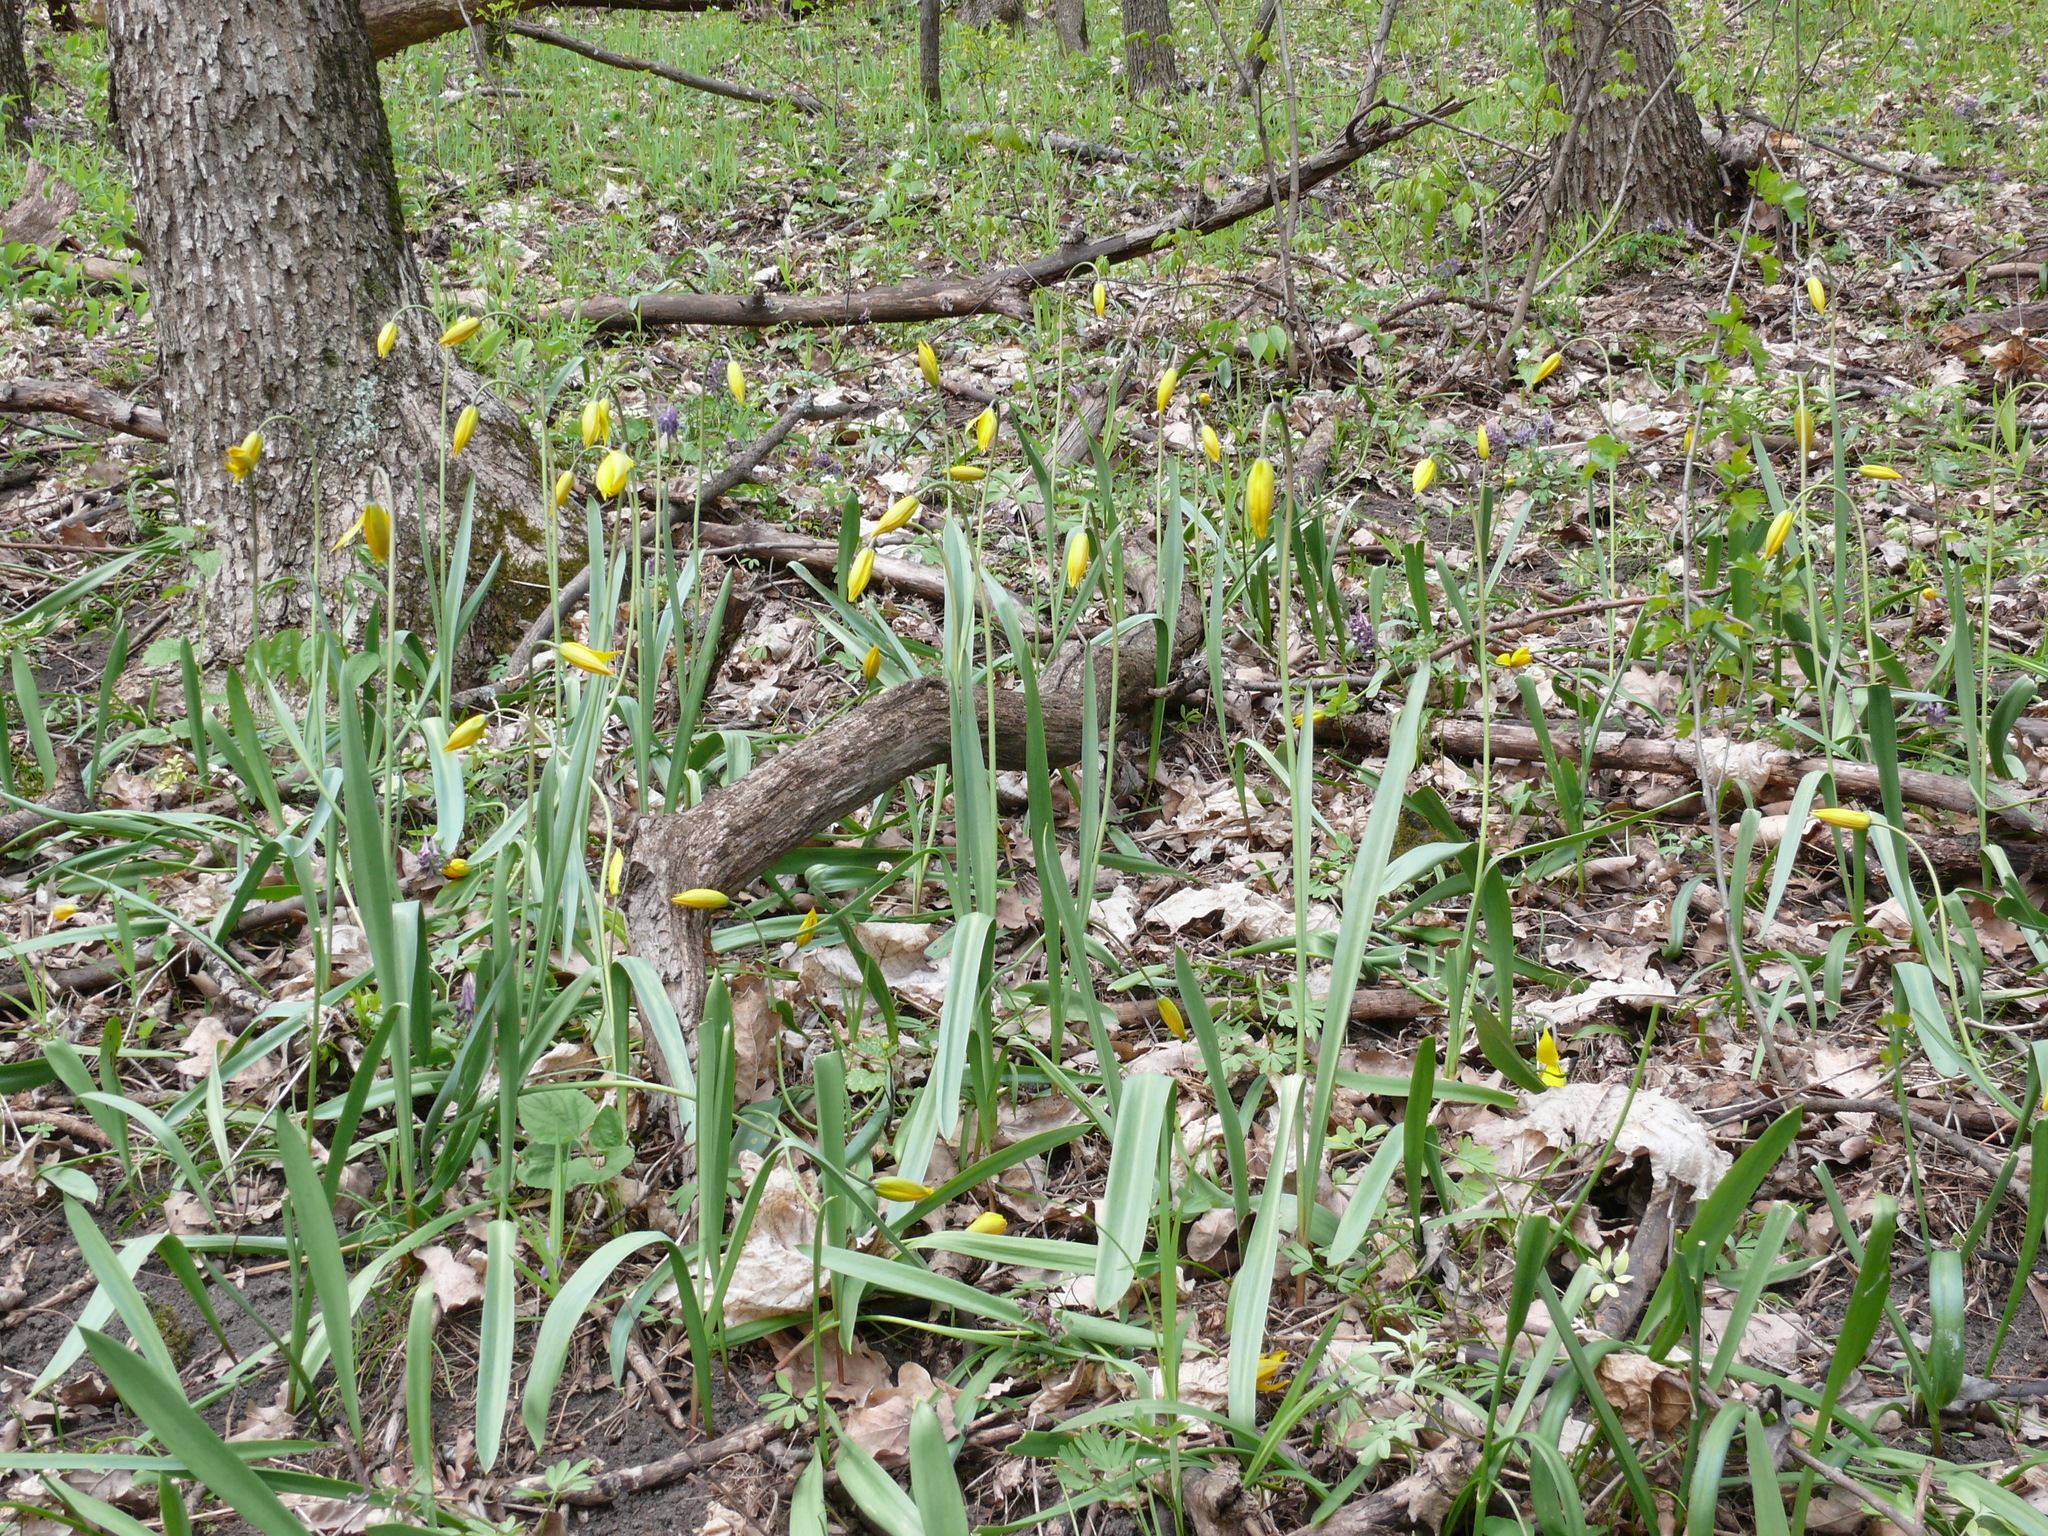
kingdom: Plantae
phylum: Tracheophyta
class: Liliopsida
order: Liliales
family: Liliaceae
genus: Tulipa
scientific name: Tulipa sylvestris
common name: Wild tulip
